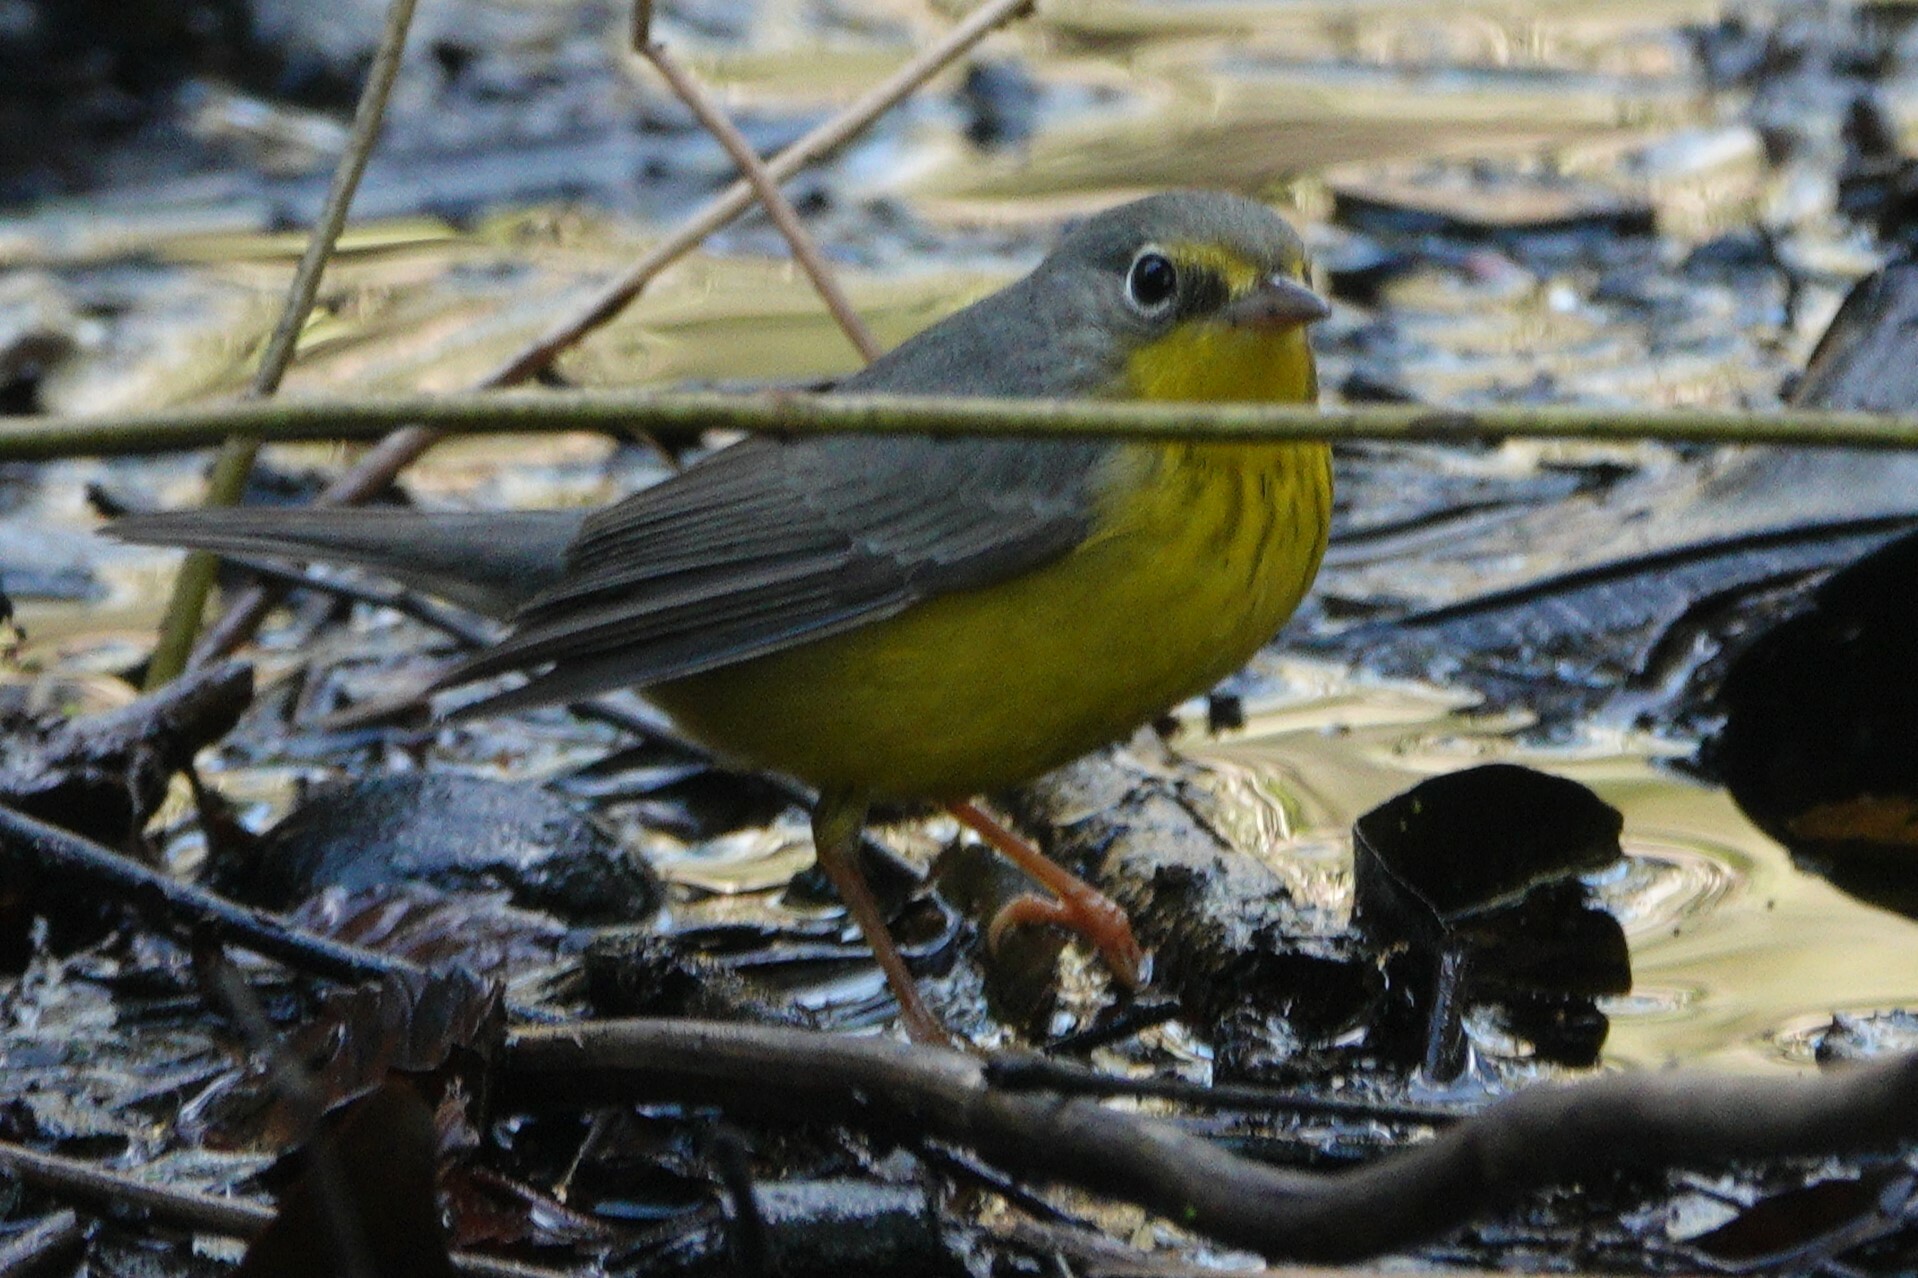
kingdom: Animalia
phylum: Chordata
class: Aves
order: Passeriformes
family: Parulidae
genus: Cardellina
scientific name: Cardellina canadensis
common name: Canada warbler
